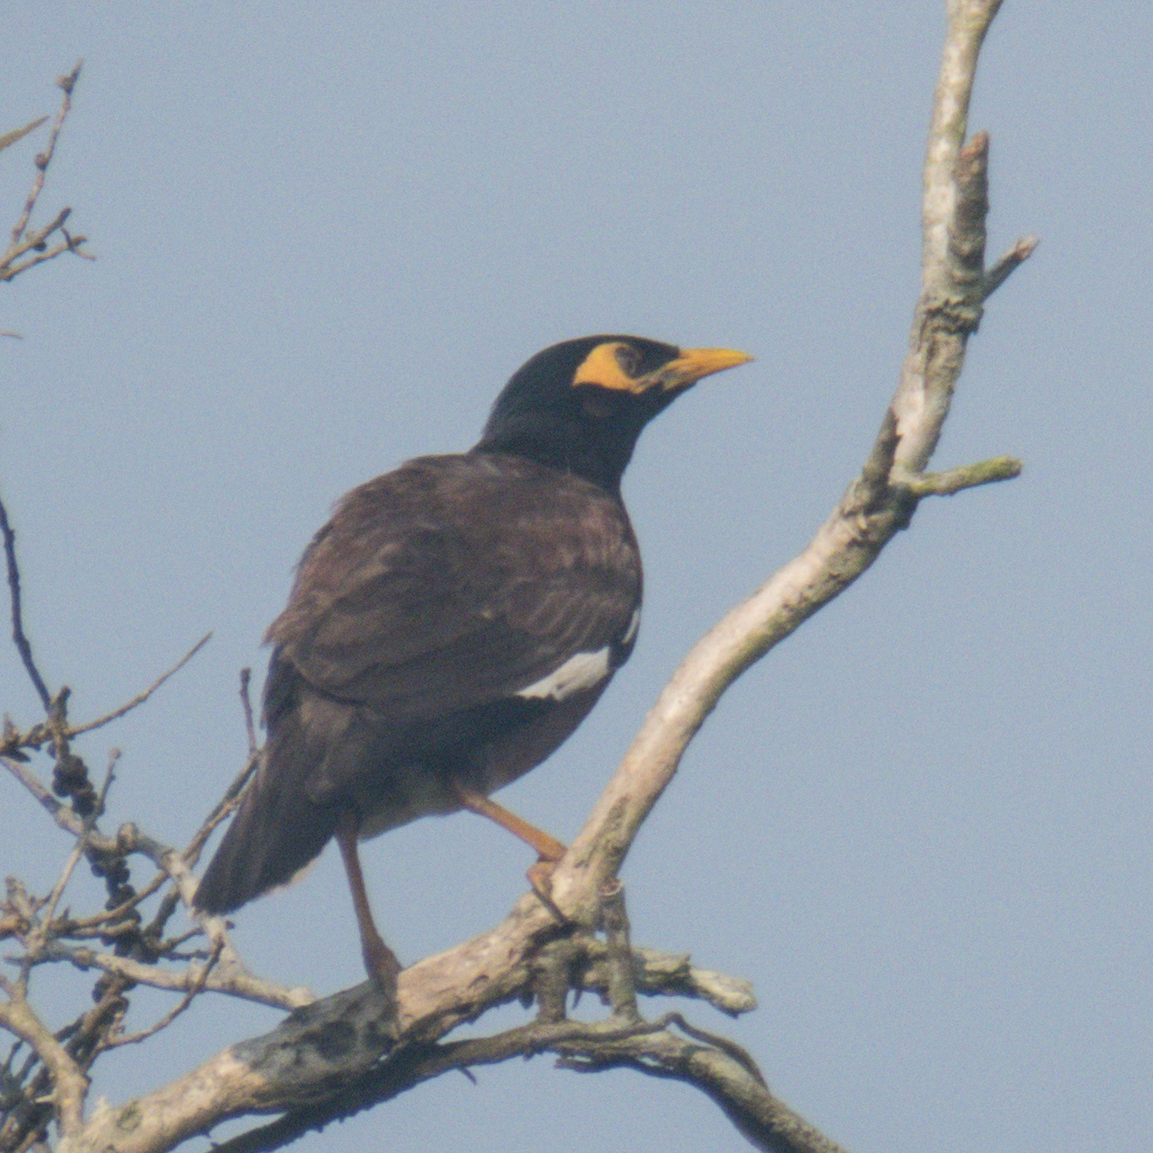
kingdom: Animalia
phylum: Chordata
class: Aves
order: Passeriformes
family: Sturnidae
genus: Acridotheres
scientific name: Acridotheres tristis
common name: Common myna
